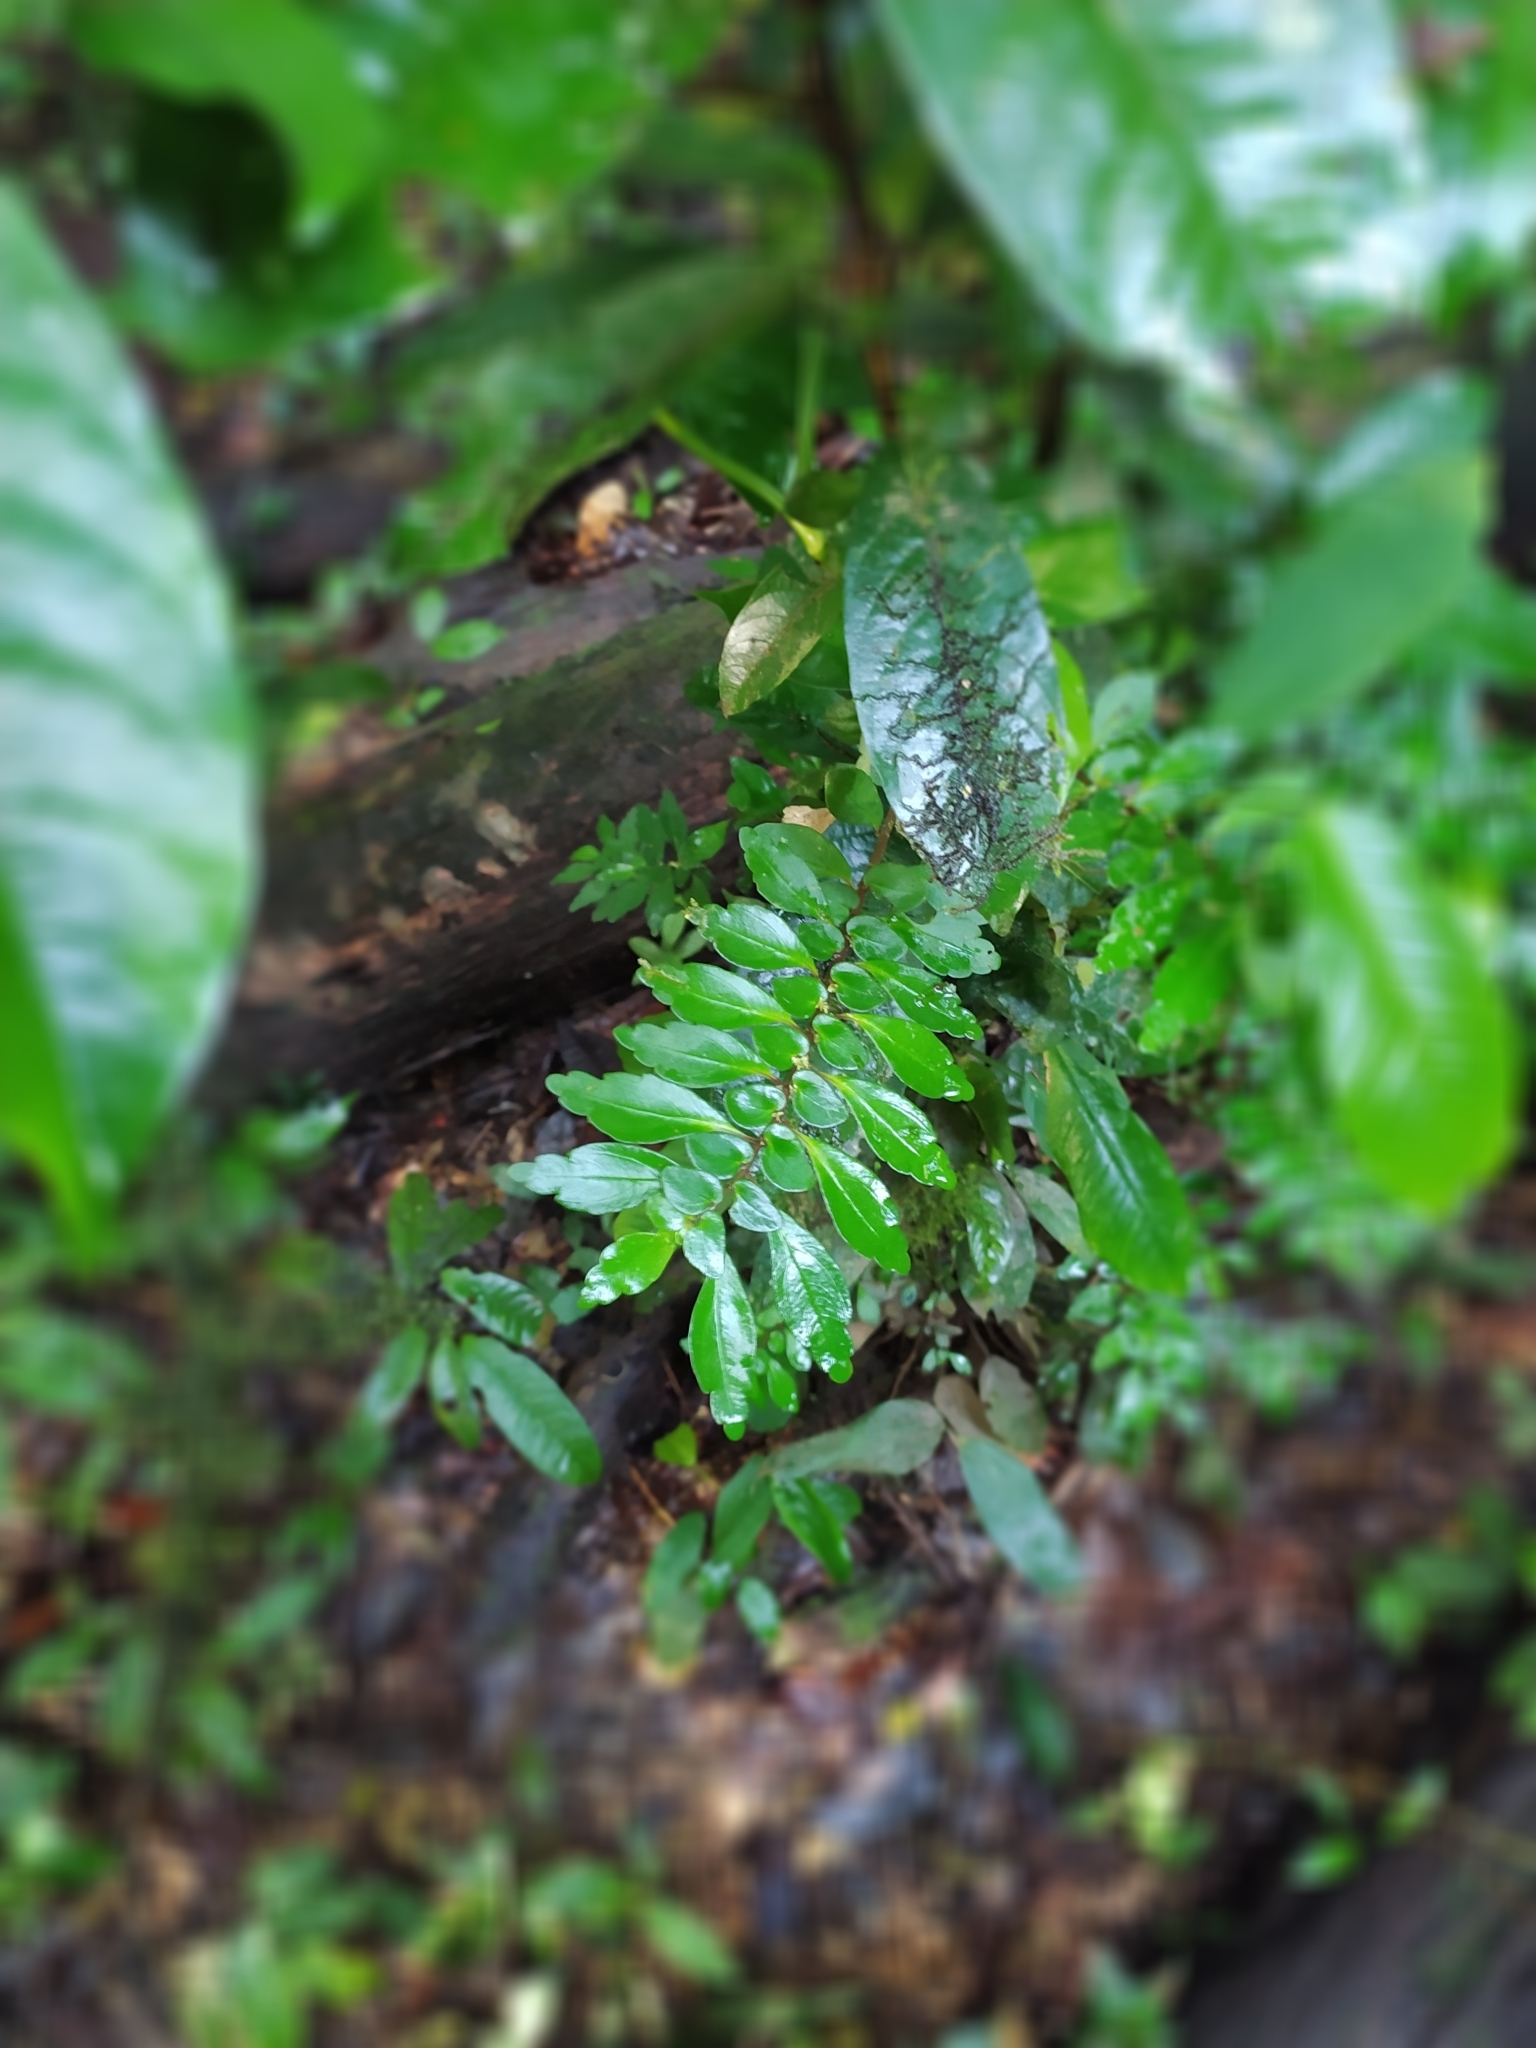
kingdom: Plantae
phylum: Tracheophyta
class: Magnoliopsida
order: Rosales
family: Urticaceae
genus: Pilea
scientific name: Pilea imparifolia
